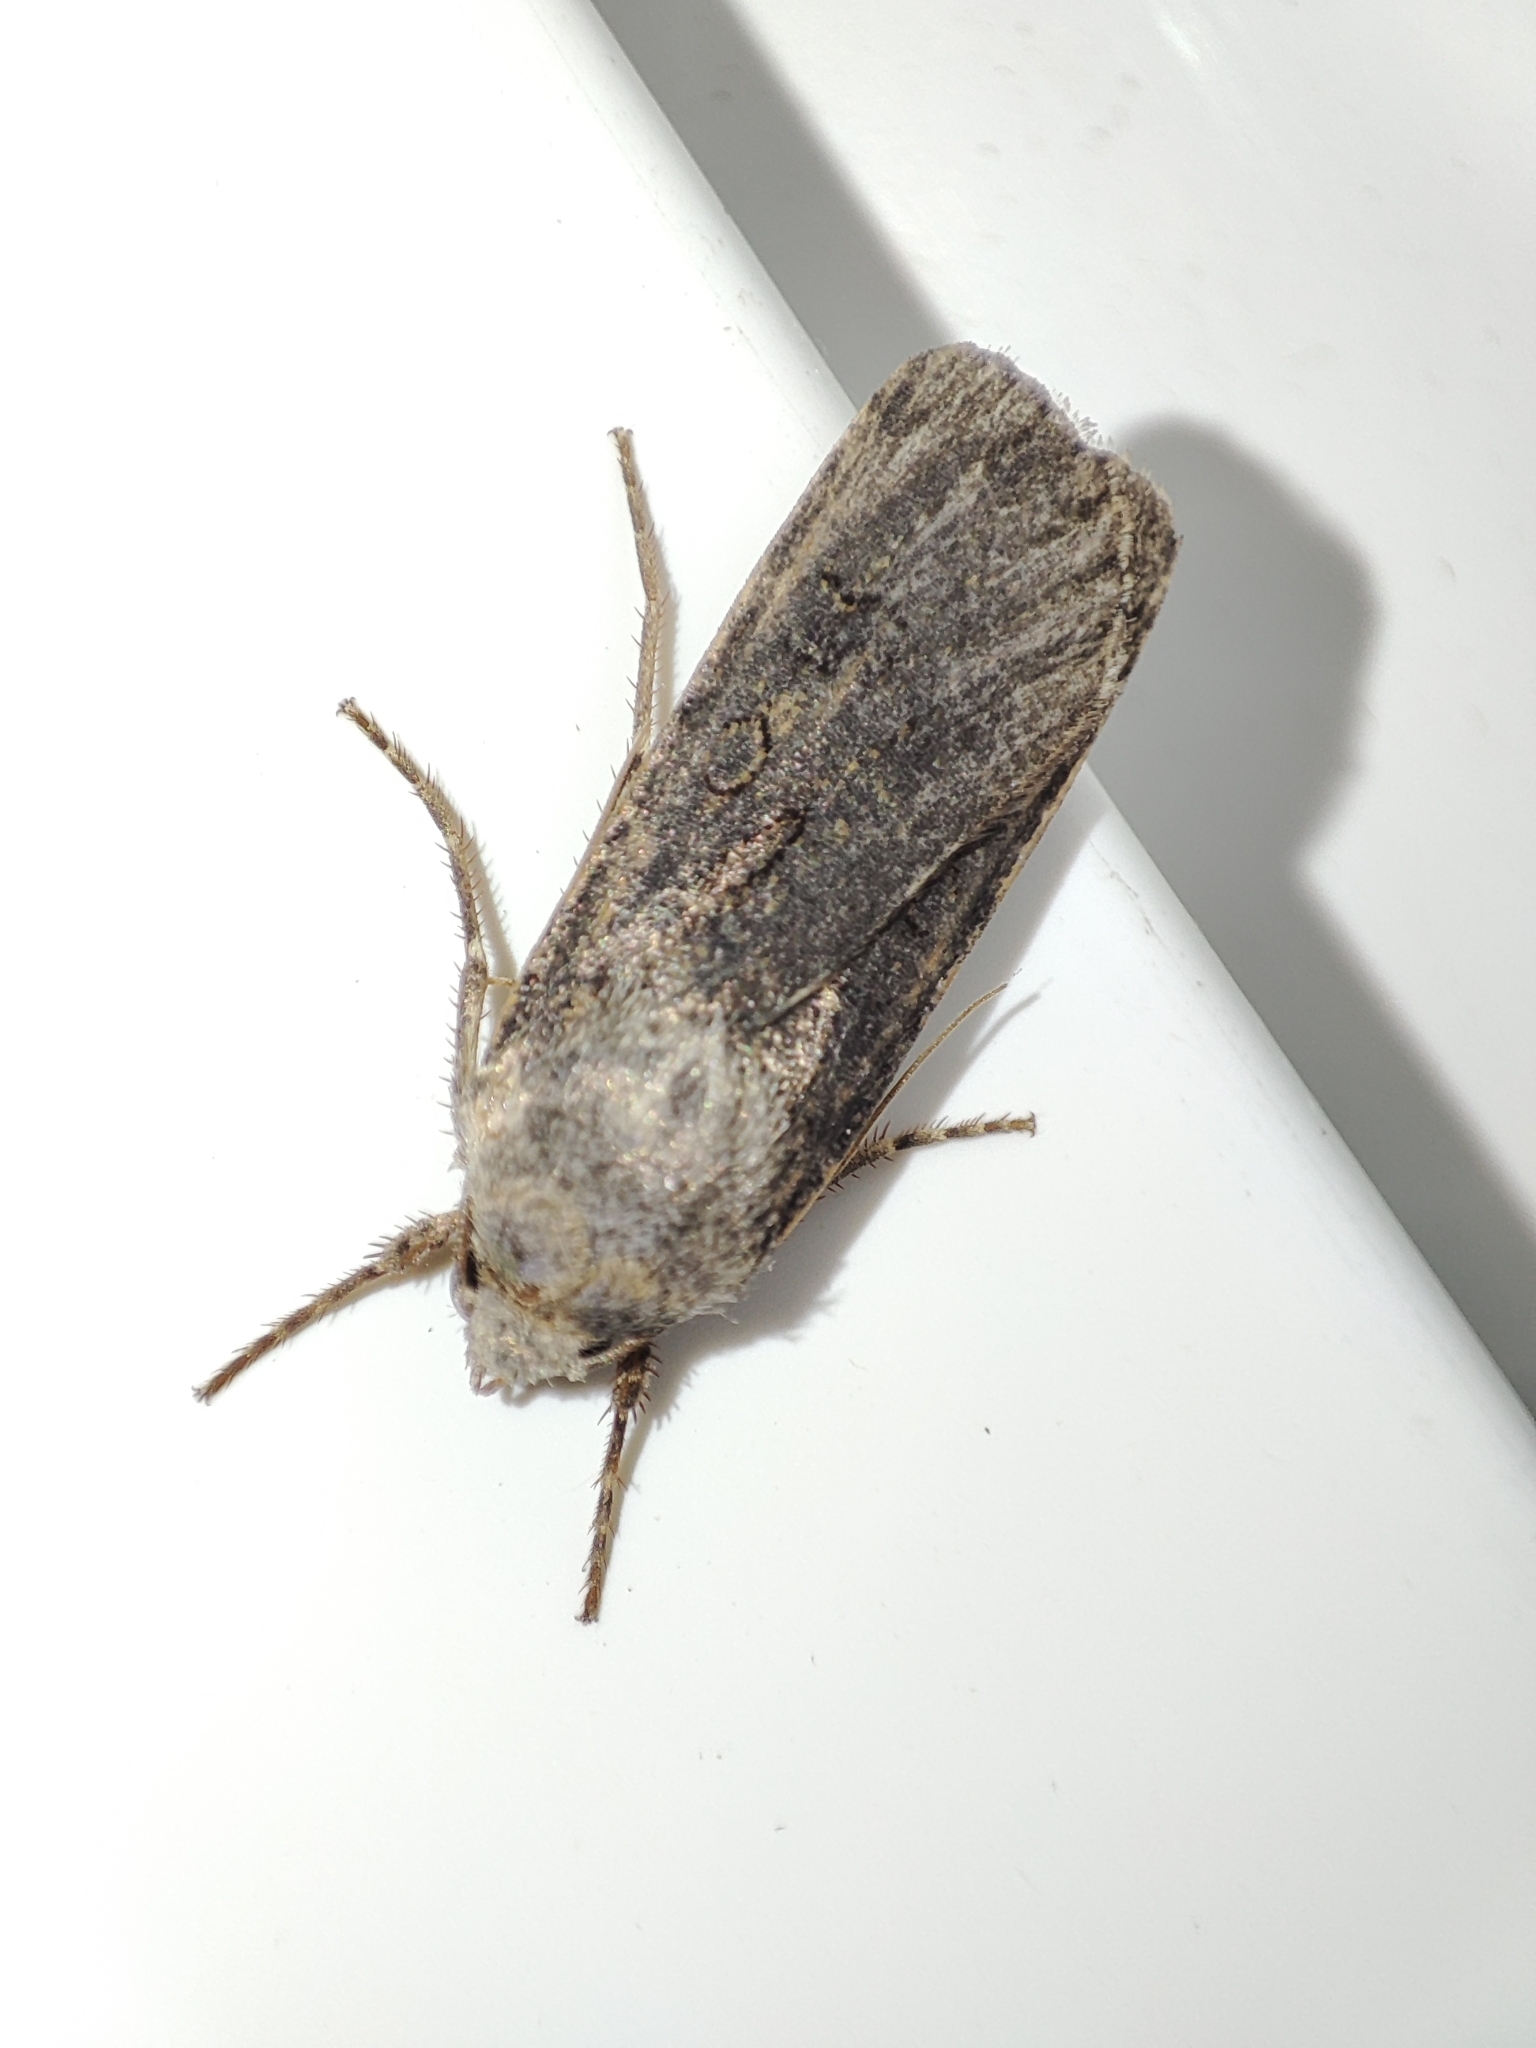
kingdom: Animalia
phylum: Arthropoda
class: Insecta
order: Lepidoptera
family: Noctuidae
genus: Agrotis
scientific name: Agrotis segetum
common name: Turnip moth
